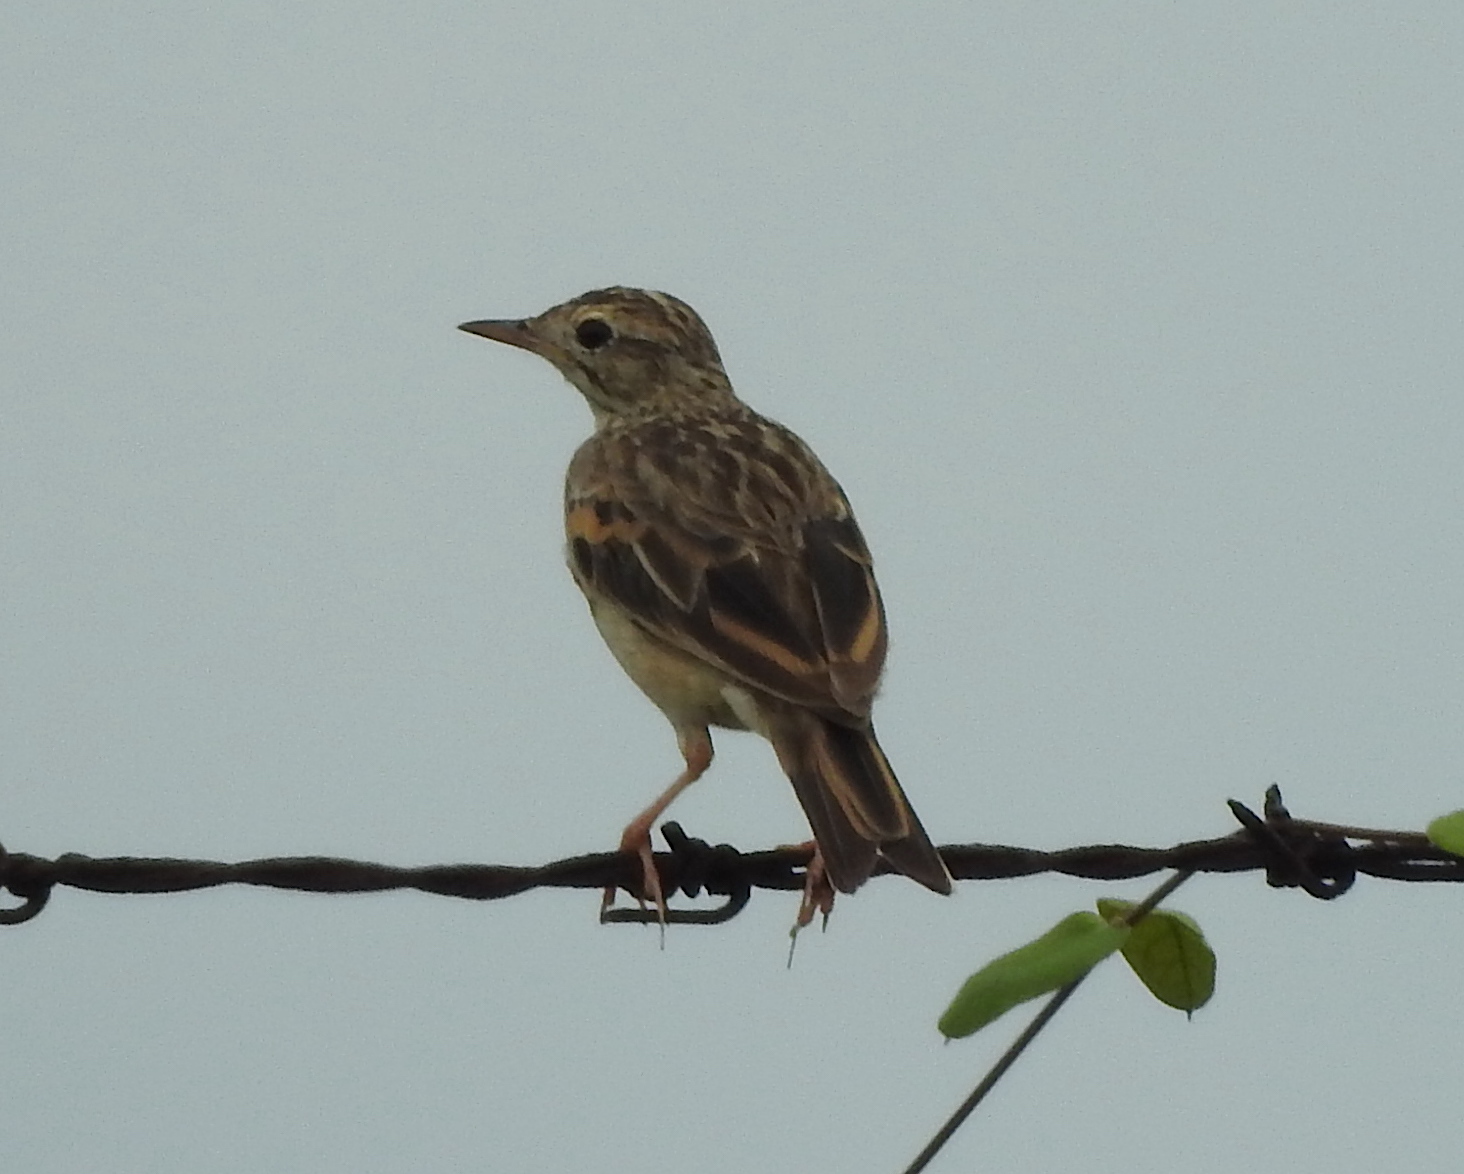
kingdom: Animalia
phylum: Chordata
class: Aves
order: Passeriformes
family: Motacillidae
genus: Anthus
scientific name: Anthus rufulus
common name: Paddyfield pipit
